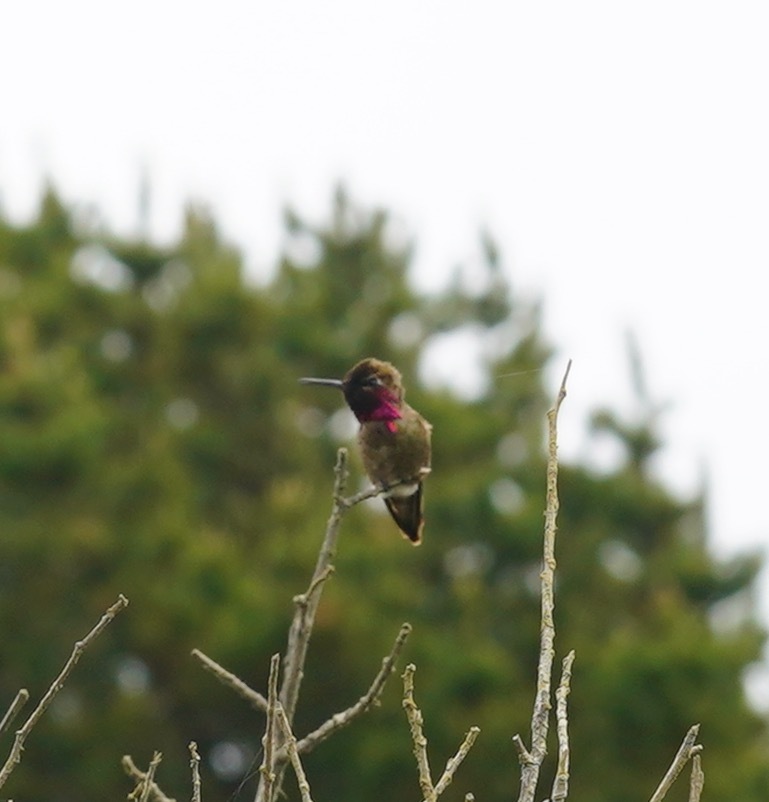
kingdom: Animalia
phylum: Chordata
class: Aves
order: Apodiformes
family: Trochilidae
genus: Calypte
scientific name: Calypte anna
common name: Anna's hummingbird
